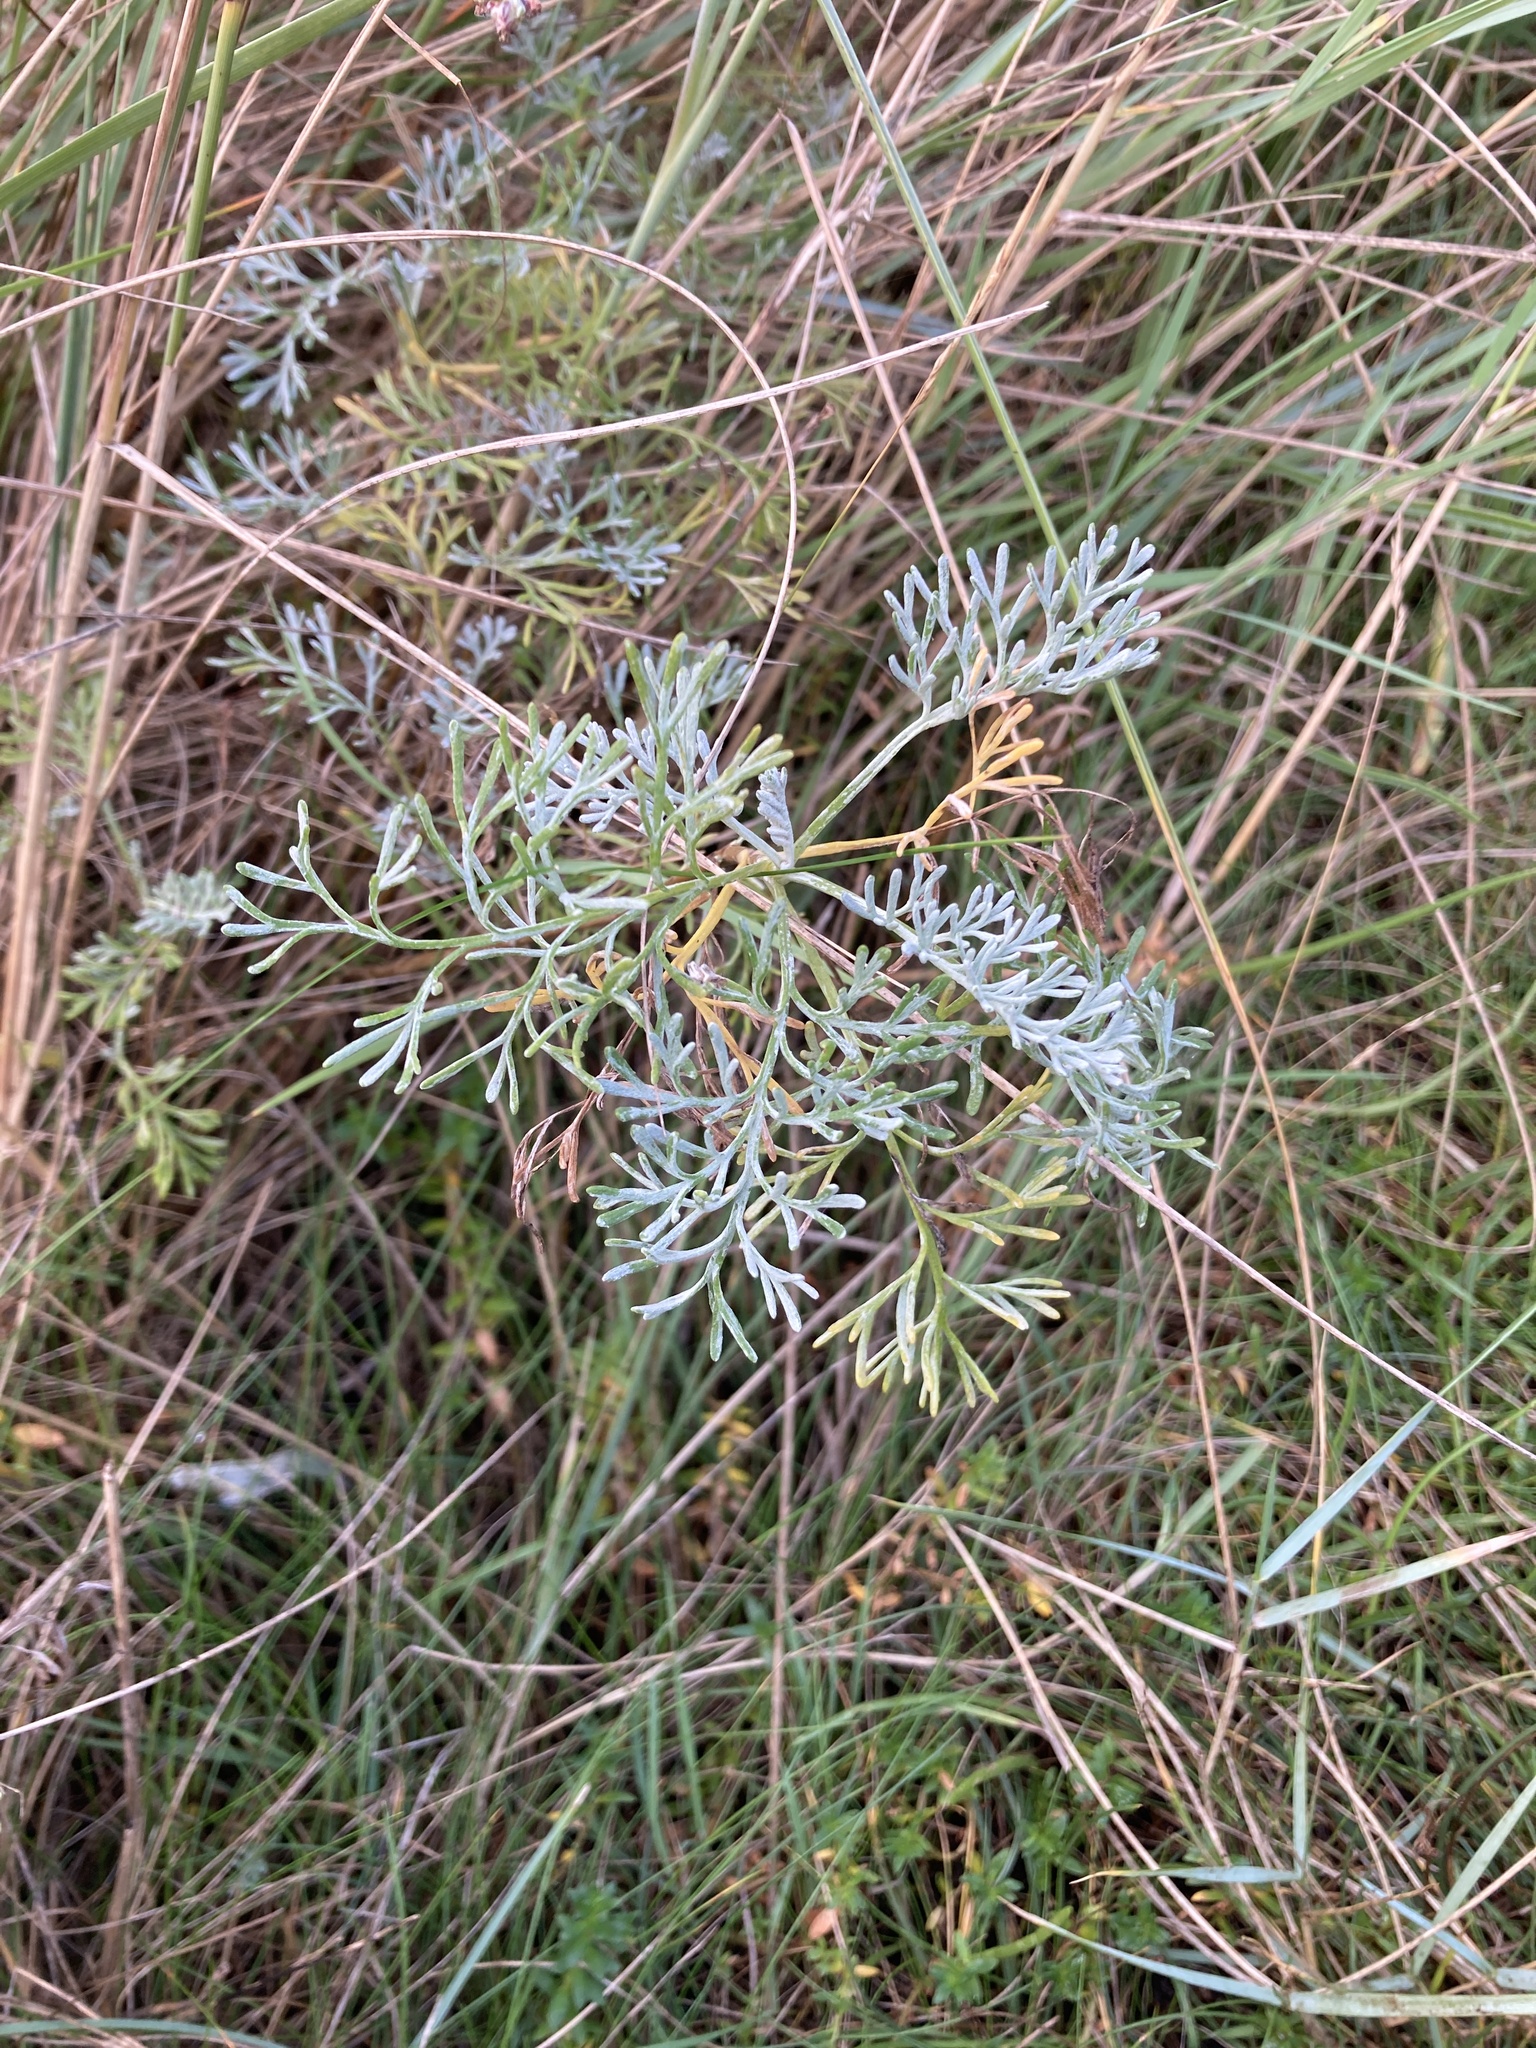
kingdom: Plantae
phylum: Tracheophyta
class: Magnoliopsida
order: Asterales
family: Asteraceae
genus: Artemisia
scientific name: Artemisia maritima
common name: Wormseed
